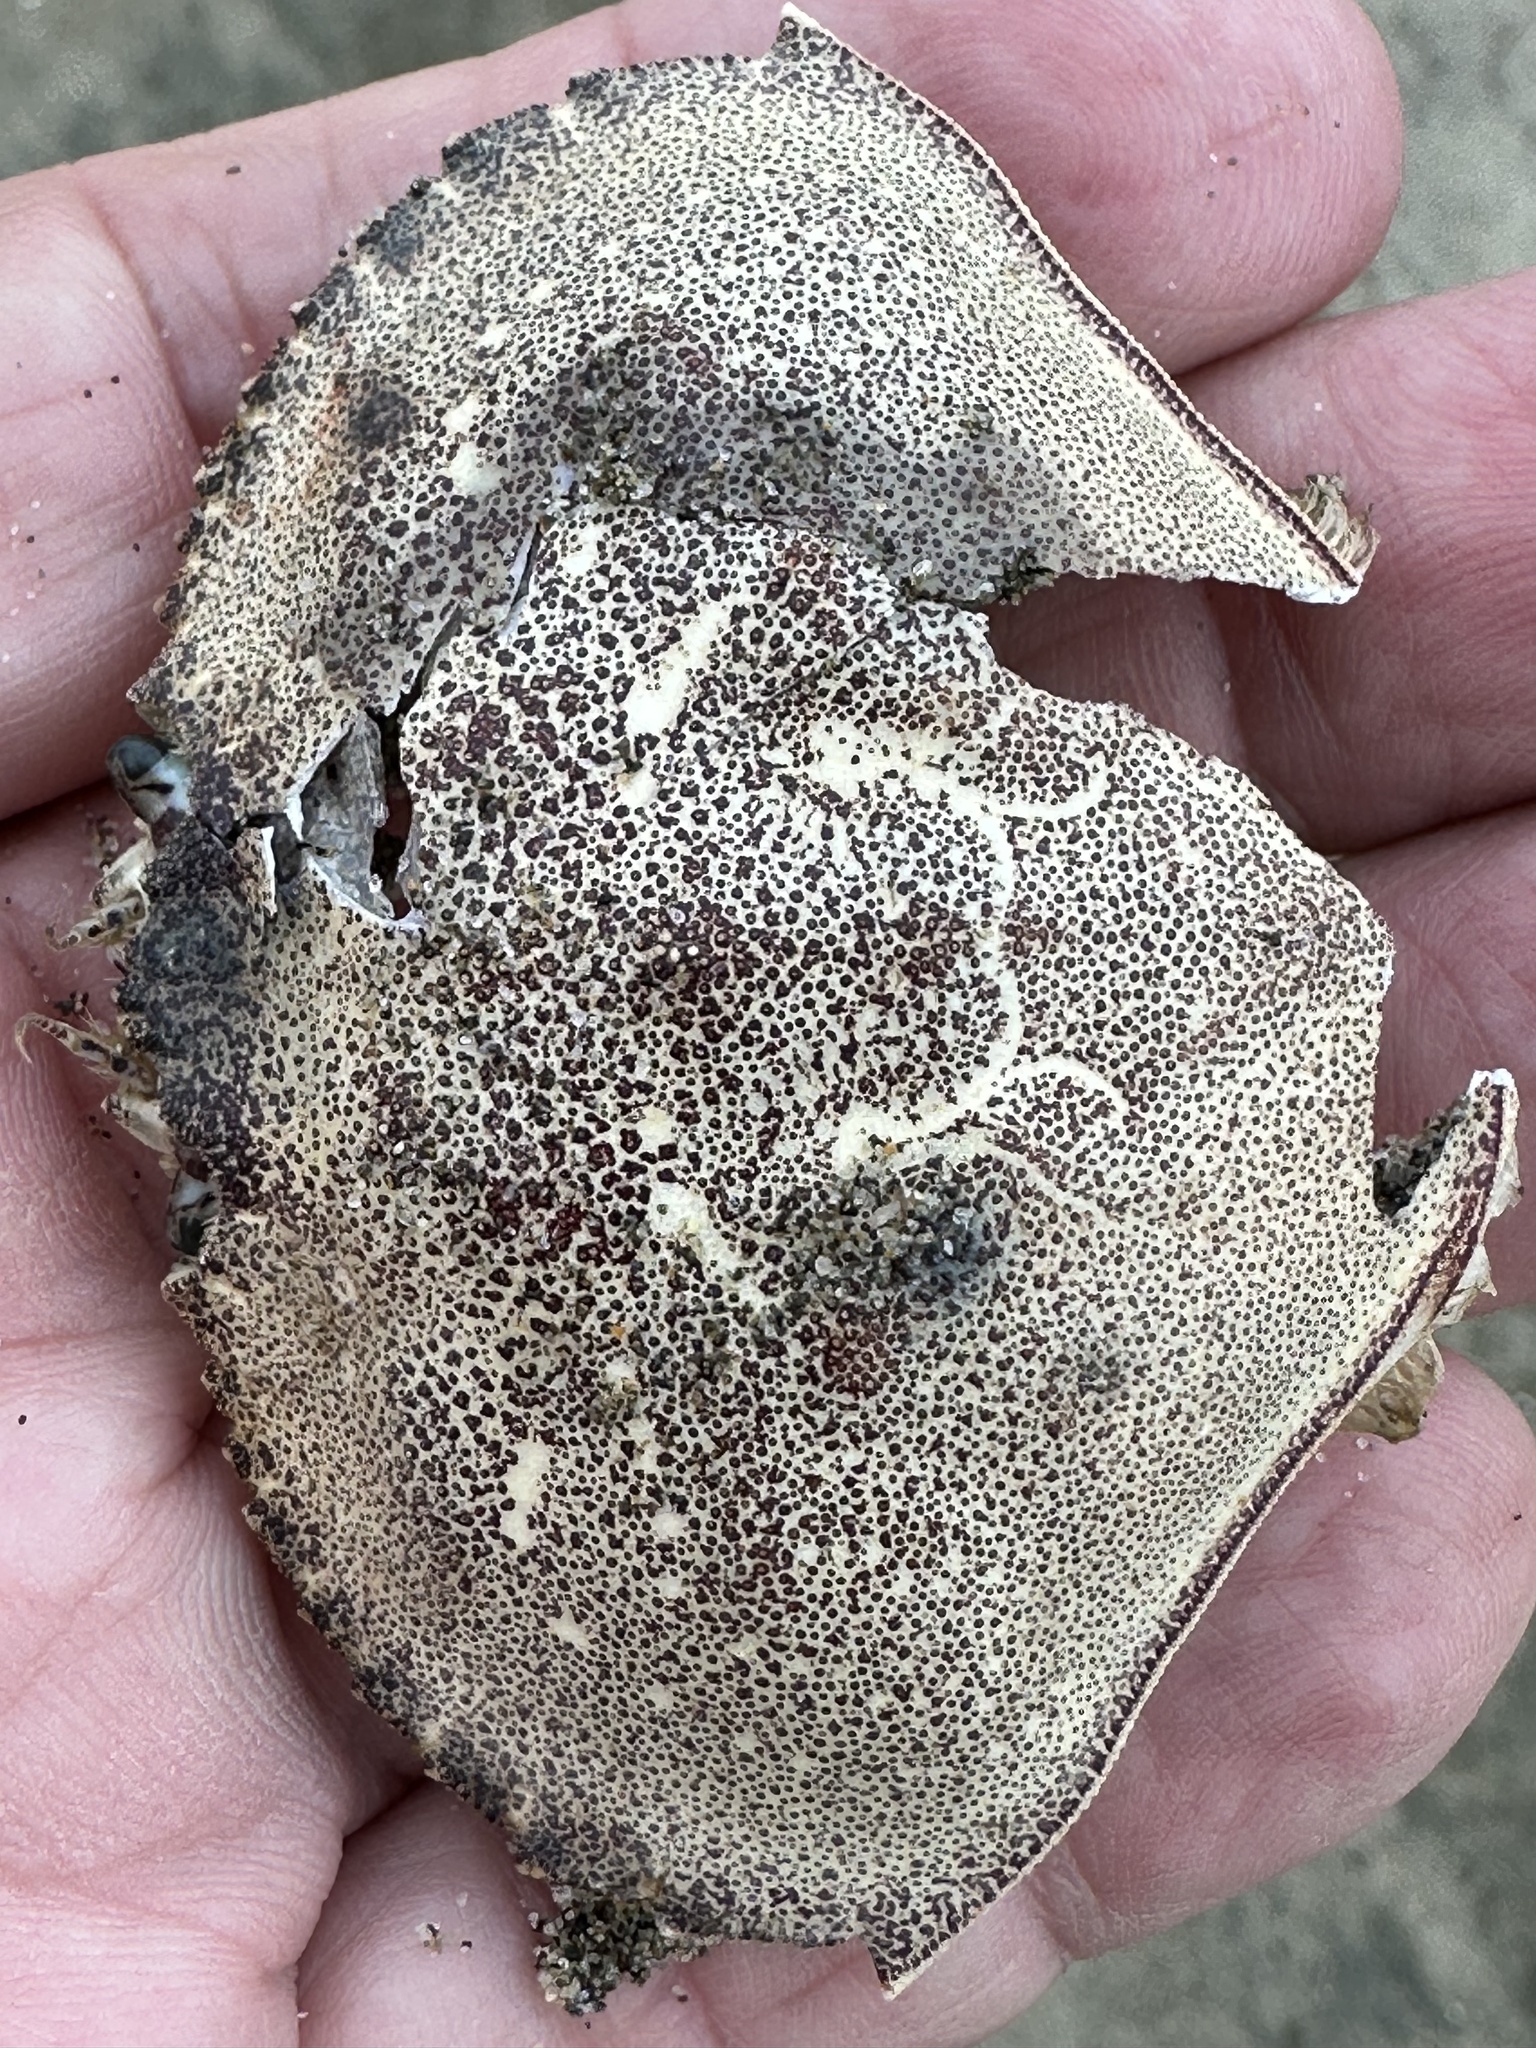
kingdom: Animalia
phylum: Arthropoda
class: Malacostraca
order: Decapoda
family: Cancridae
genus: Metacarcinus
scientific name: Metacarcinus magister
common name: Californian crab
